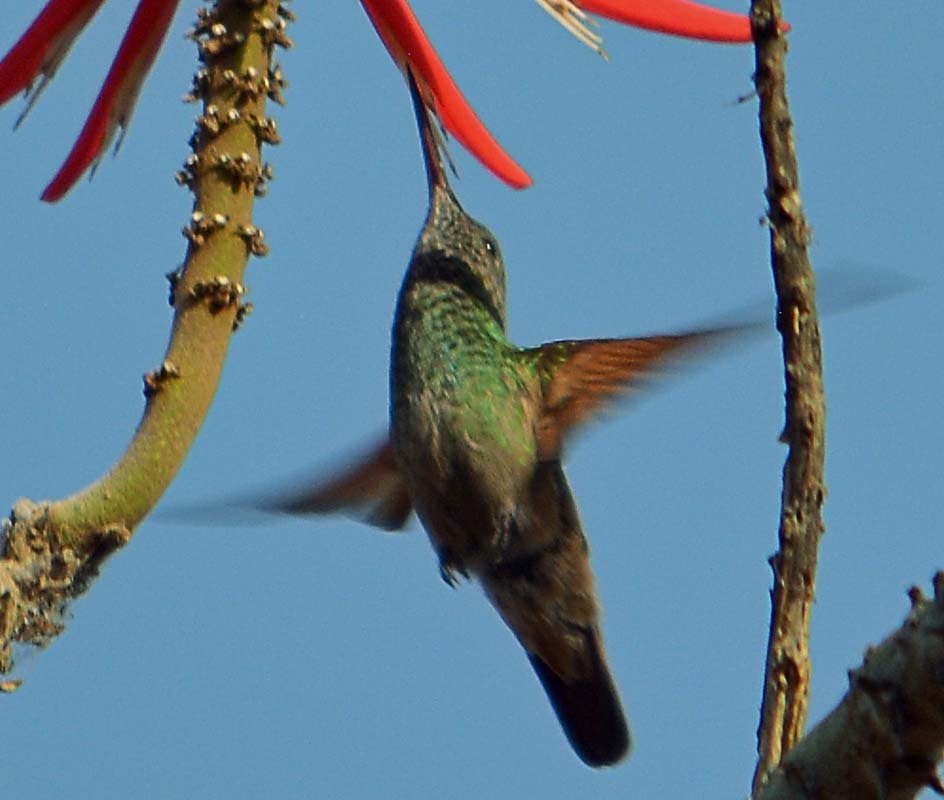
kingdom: Animalia
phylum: Chordata
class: Aves
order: Apodiformes
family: Trochilidae
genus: Saucerottia
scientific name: Saucerottia beryllina
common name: Berylline hummingbird
